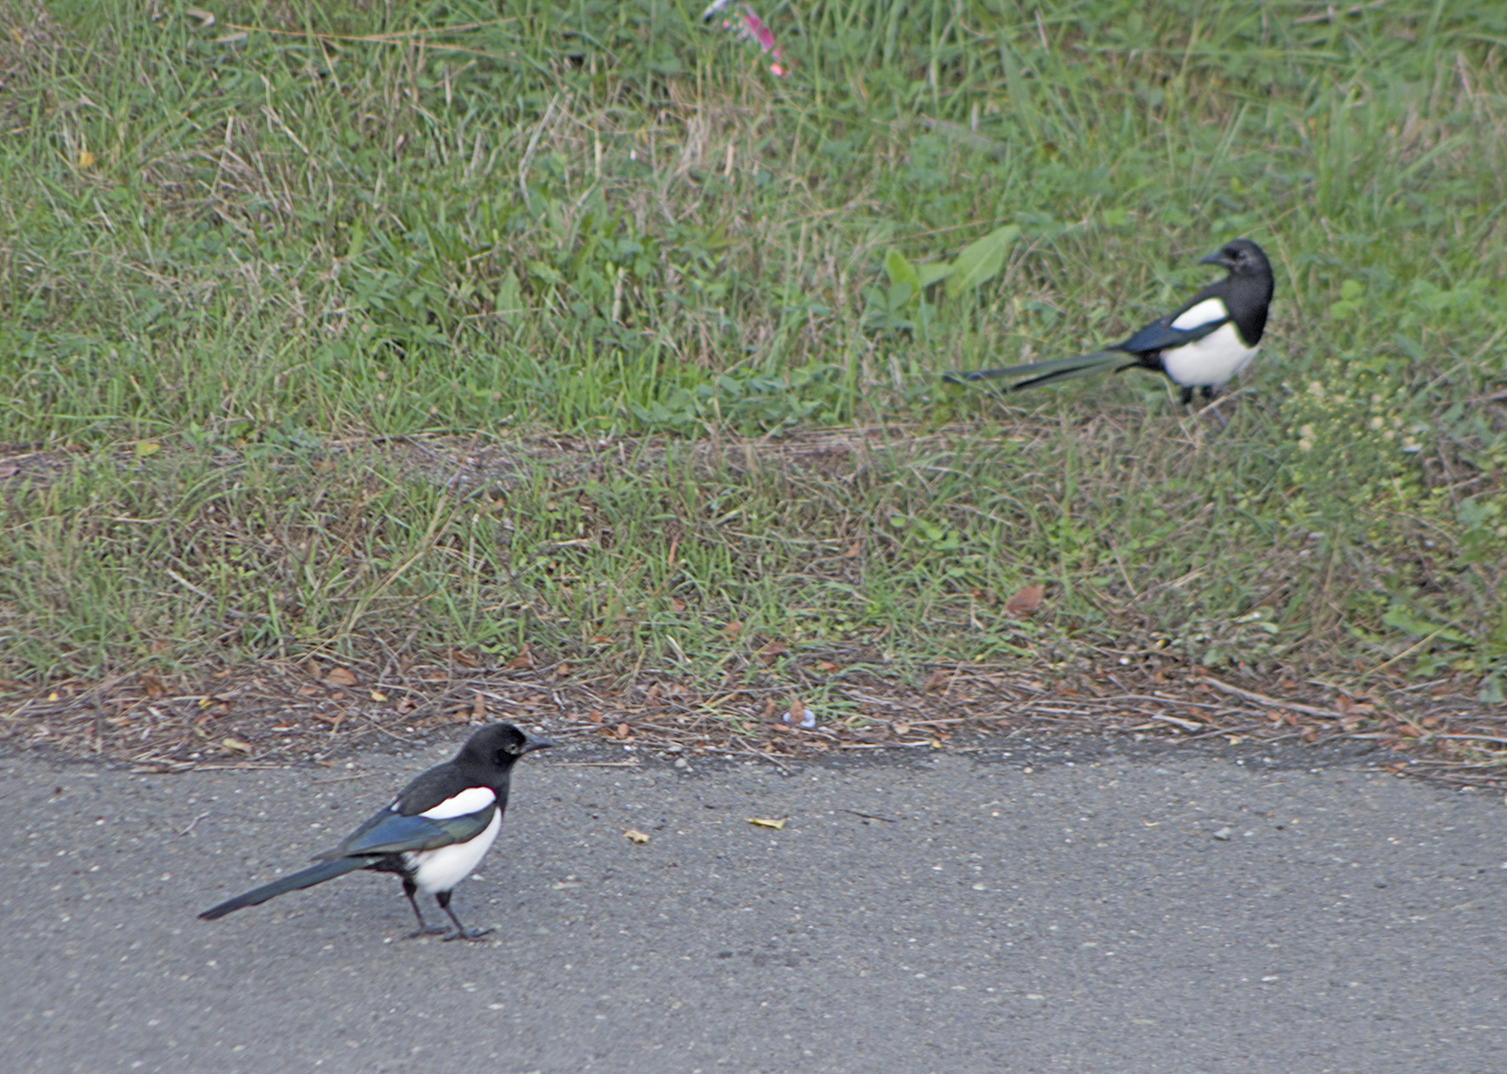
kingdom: Animalia
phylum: Chordata
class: Aves
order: Passeriformes
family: Corvidae
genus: Pica
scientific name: Pica pica
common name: Eurasian magpie
